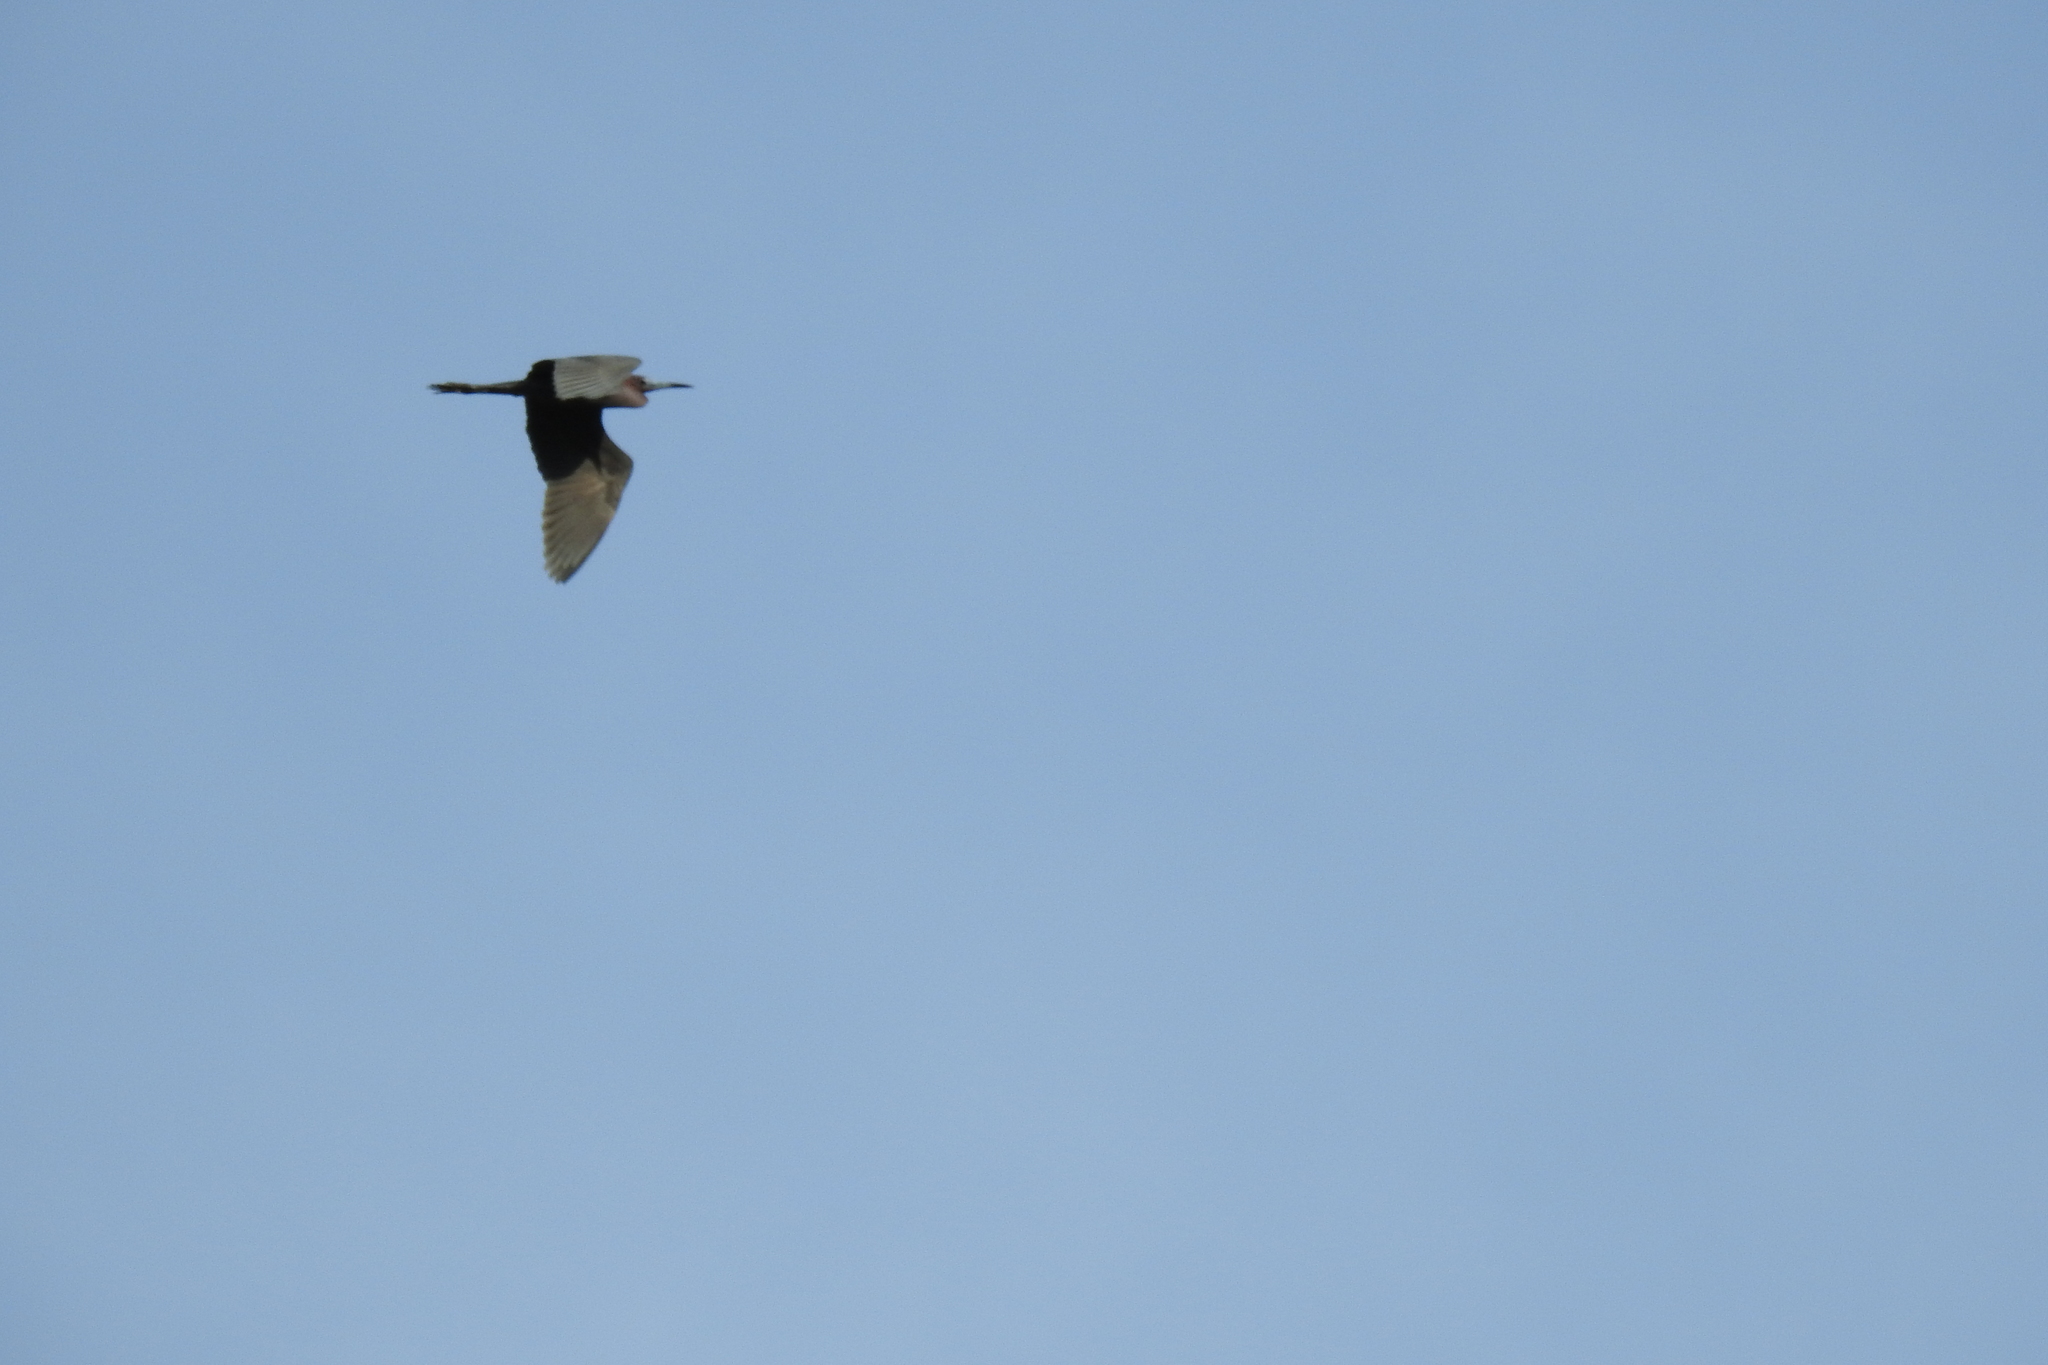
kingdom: Animalia
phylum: Chordata
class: Aves
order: Pelecaniformes
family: Ardeidae
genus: Egretta
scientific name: Egretta caerulea
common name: Little blue heron
